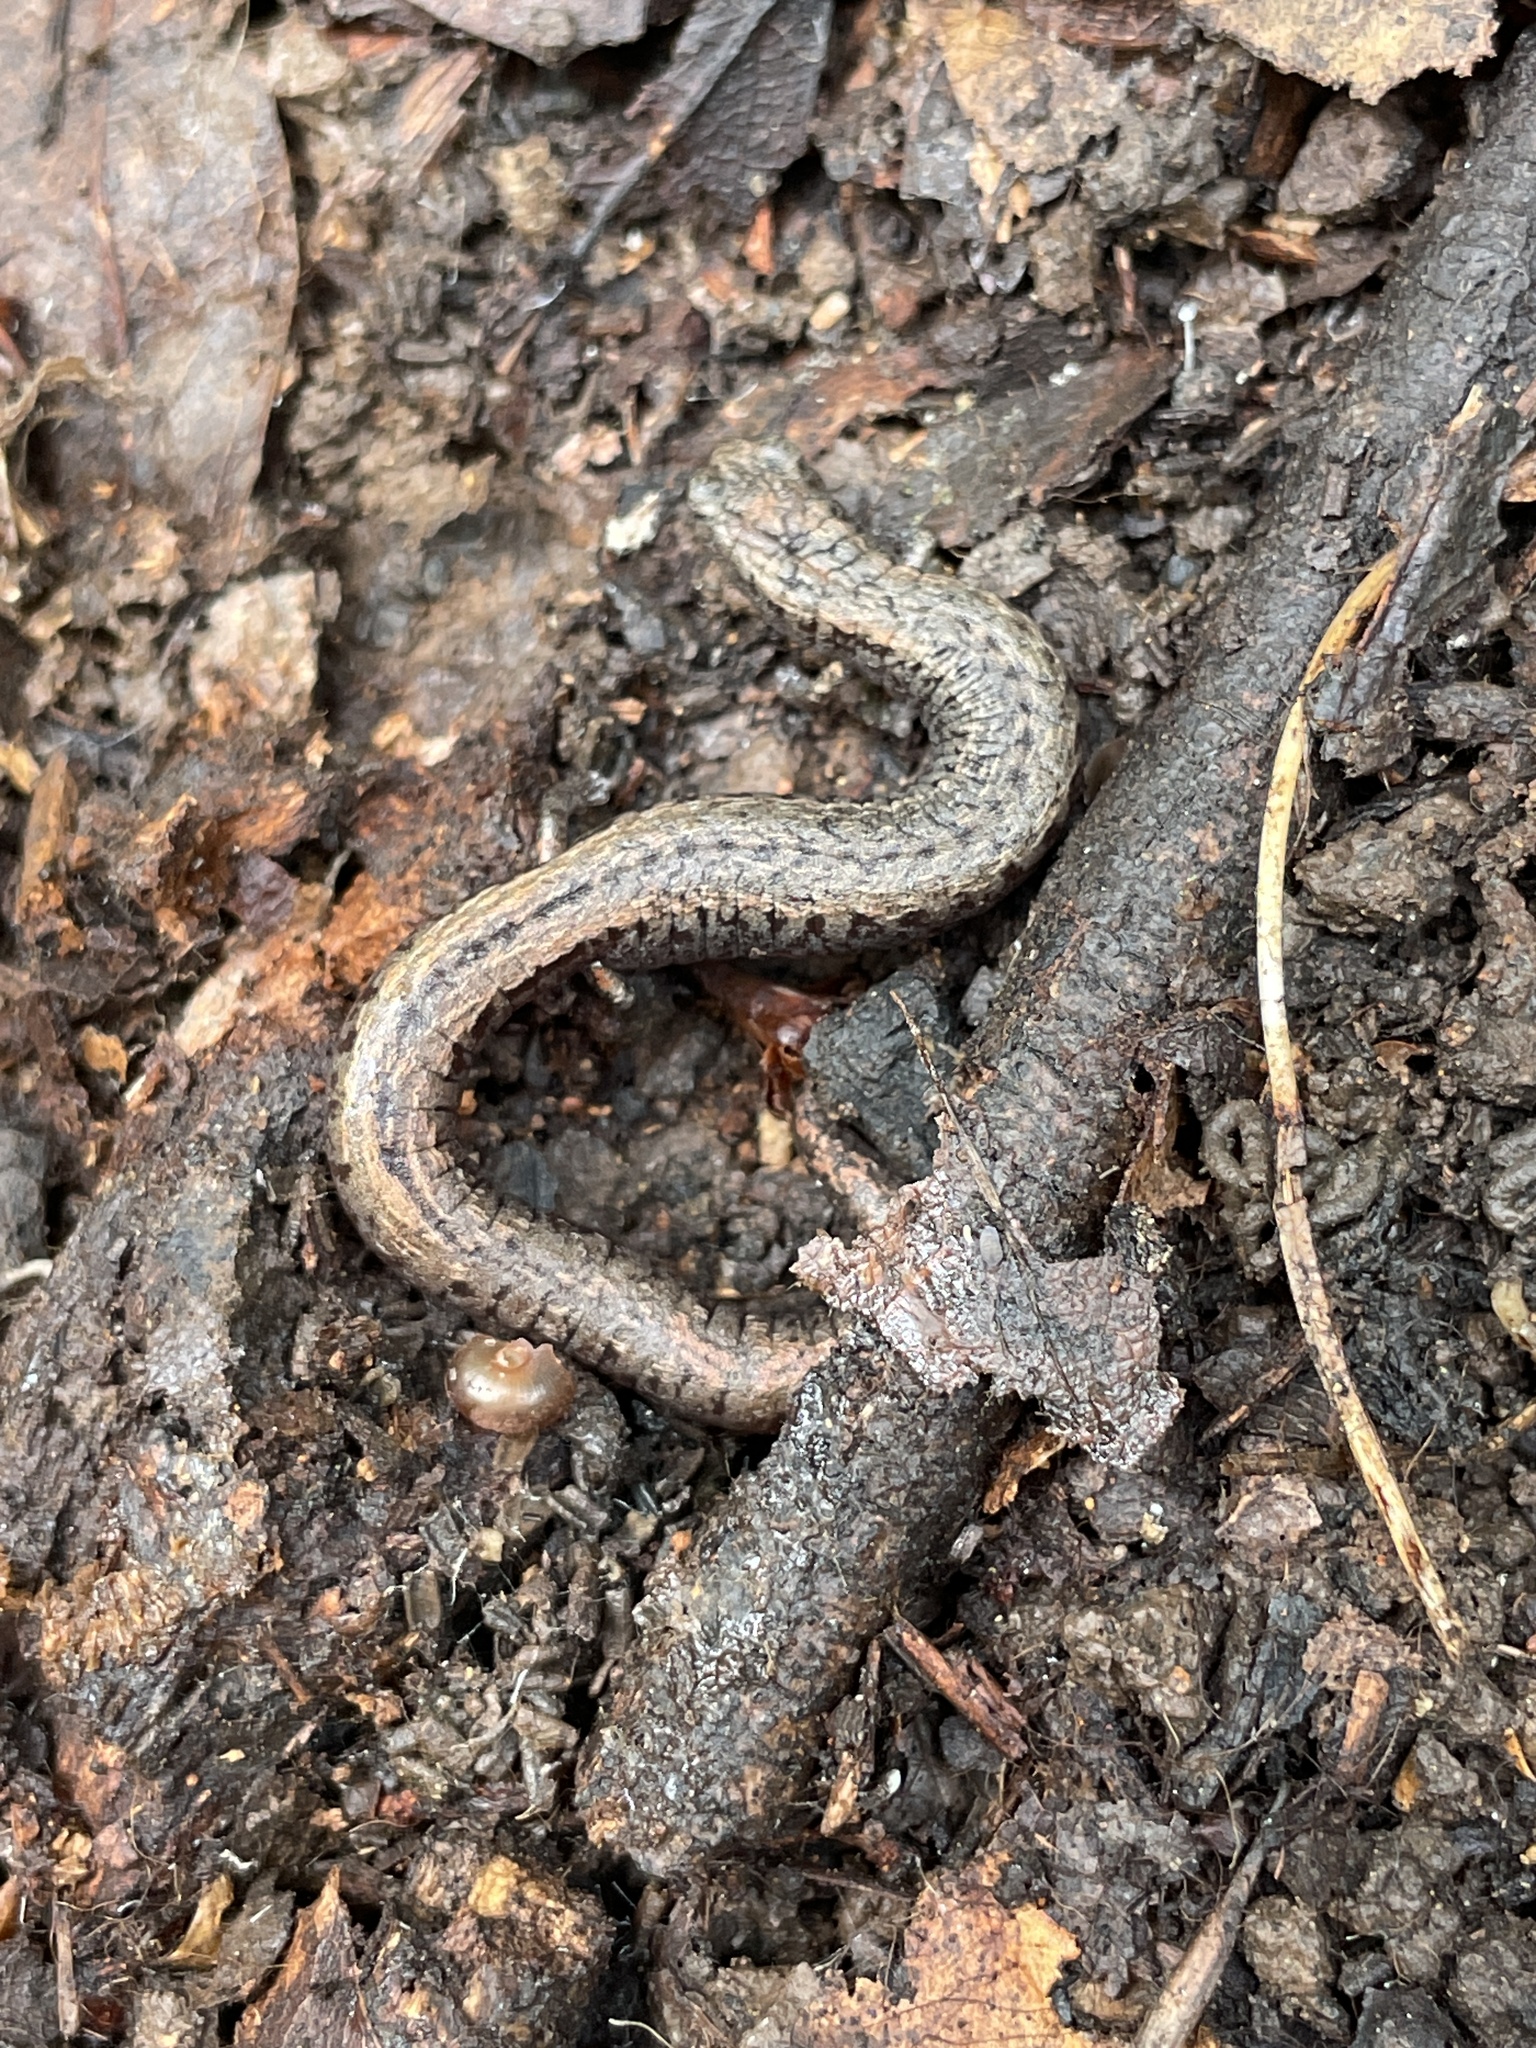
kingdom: Animalia
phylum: Chordata
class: Amphibia
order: Caudata
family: Plethodontidae
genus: Batrachoseps
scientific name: Batrachoseps attenuatus
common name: California slender salamander
